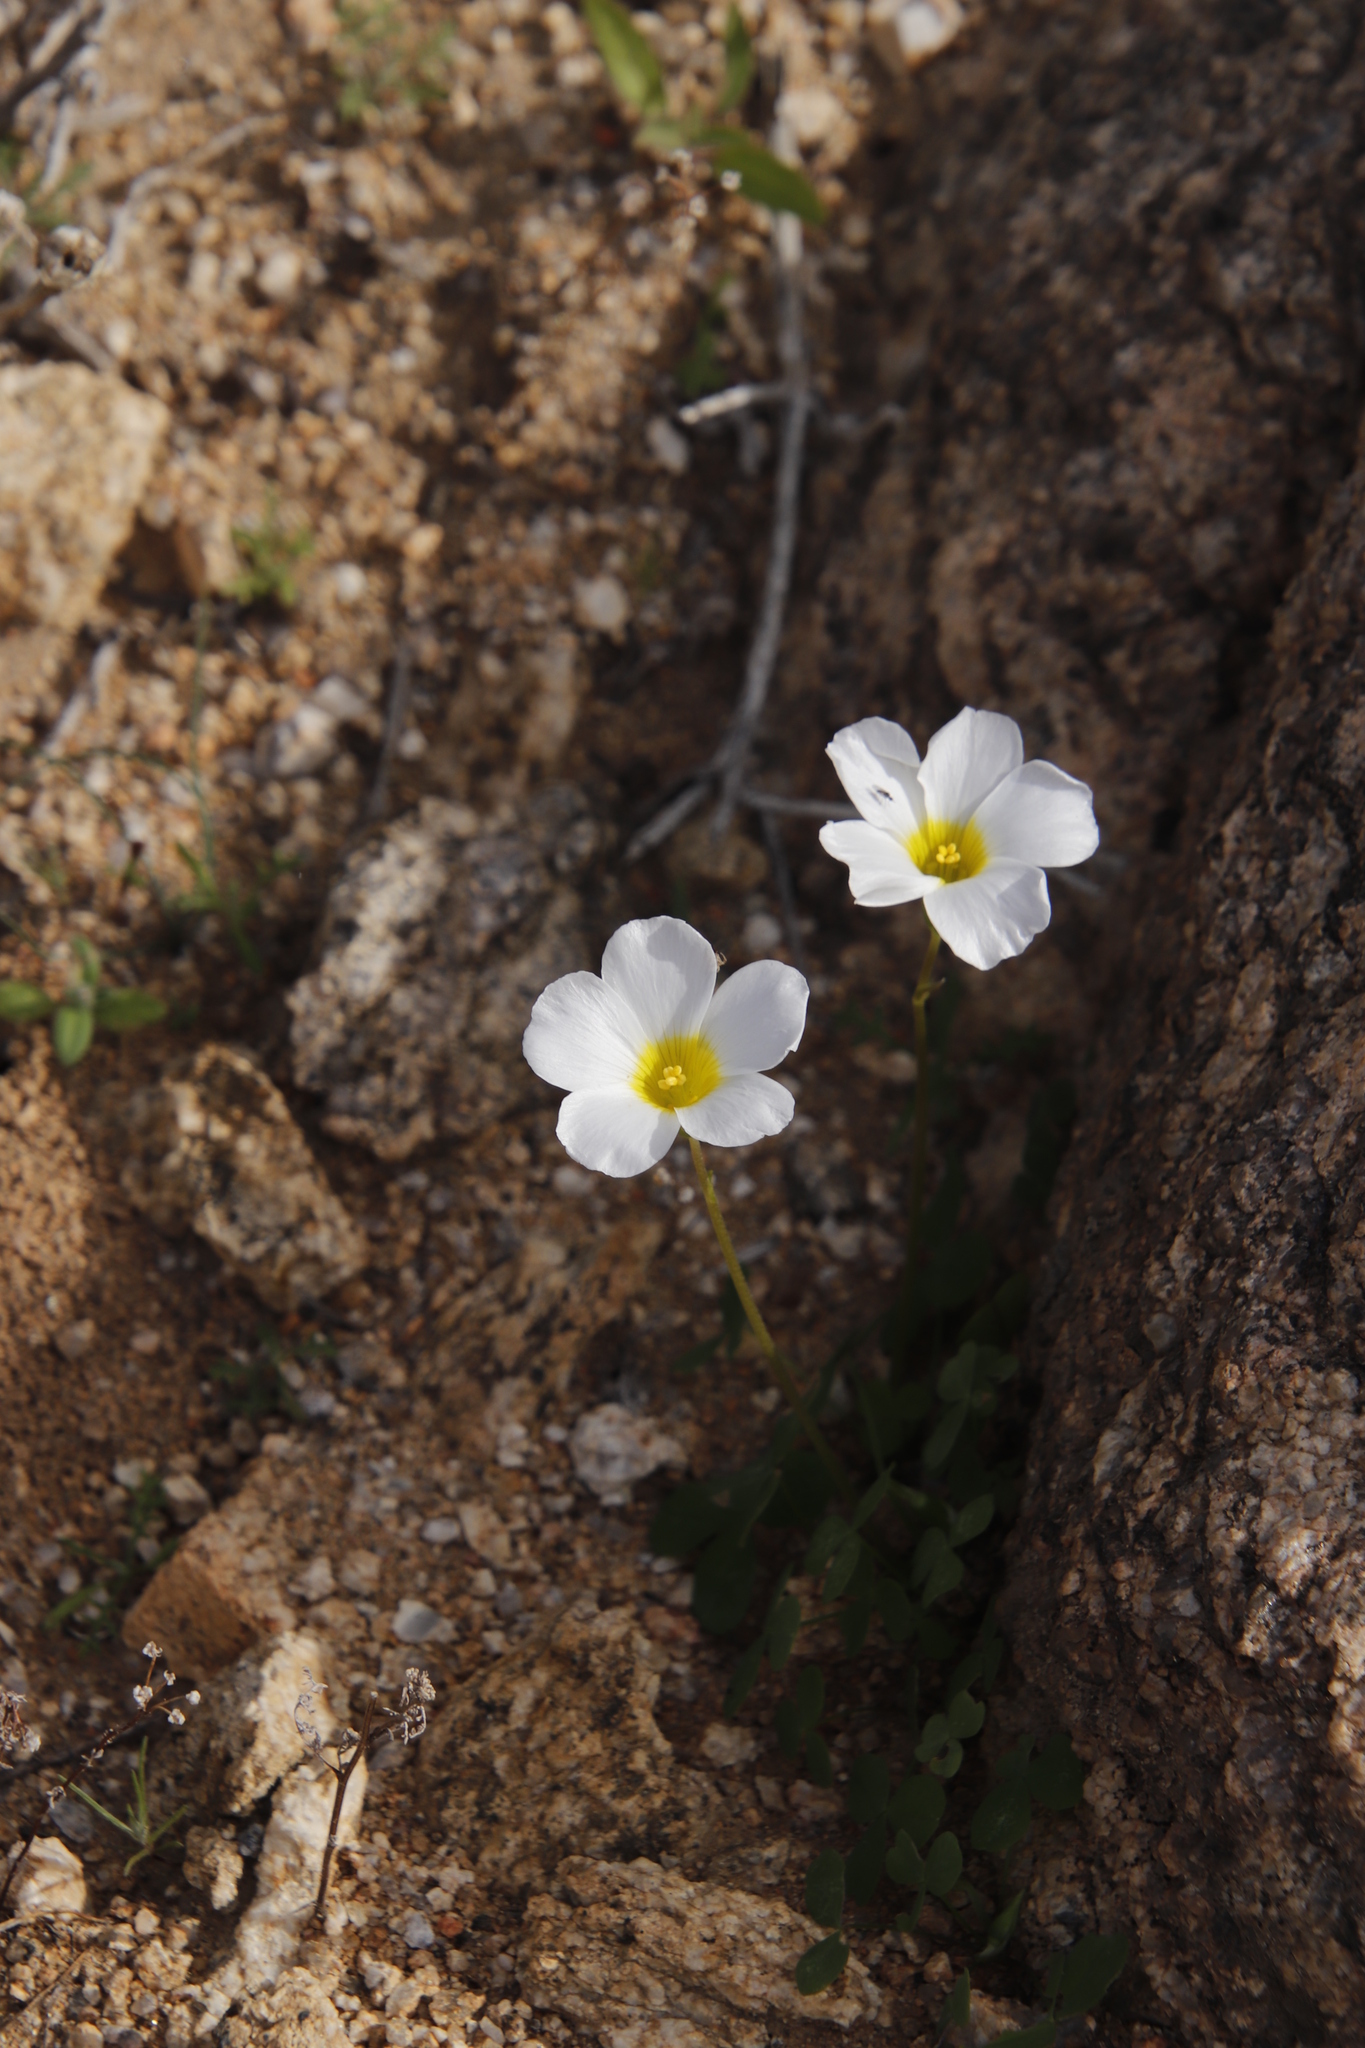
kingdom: Plantae
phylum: Tracheophyta
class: Magnoliopsida
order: Oxalidales
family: Oxalidaceae
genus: Oxalis
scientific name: Oxalis obtusa
